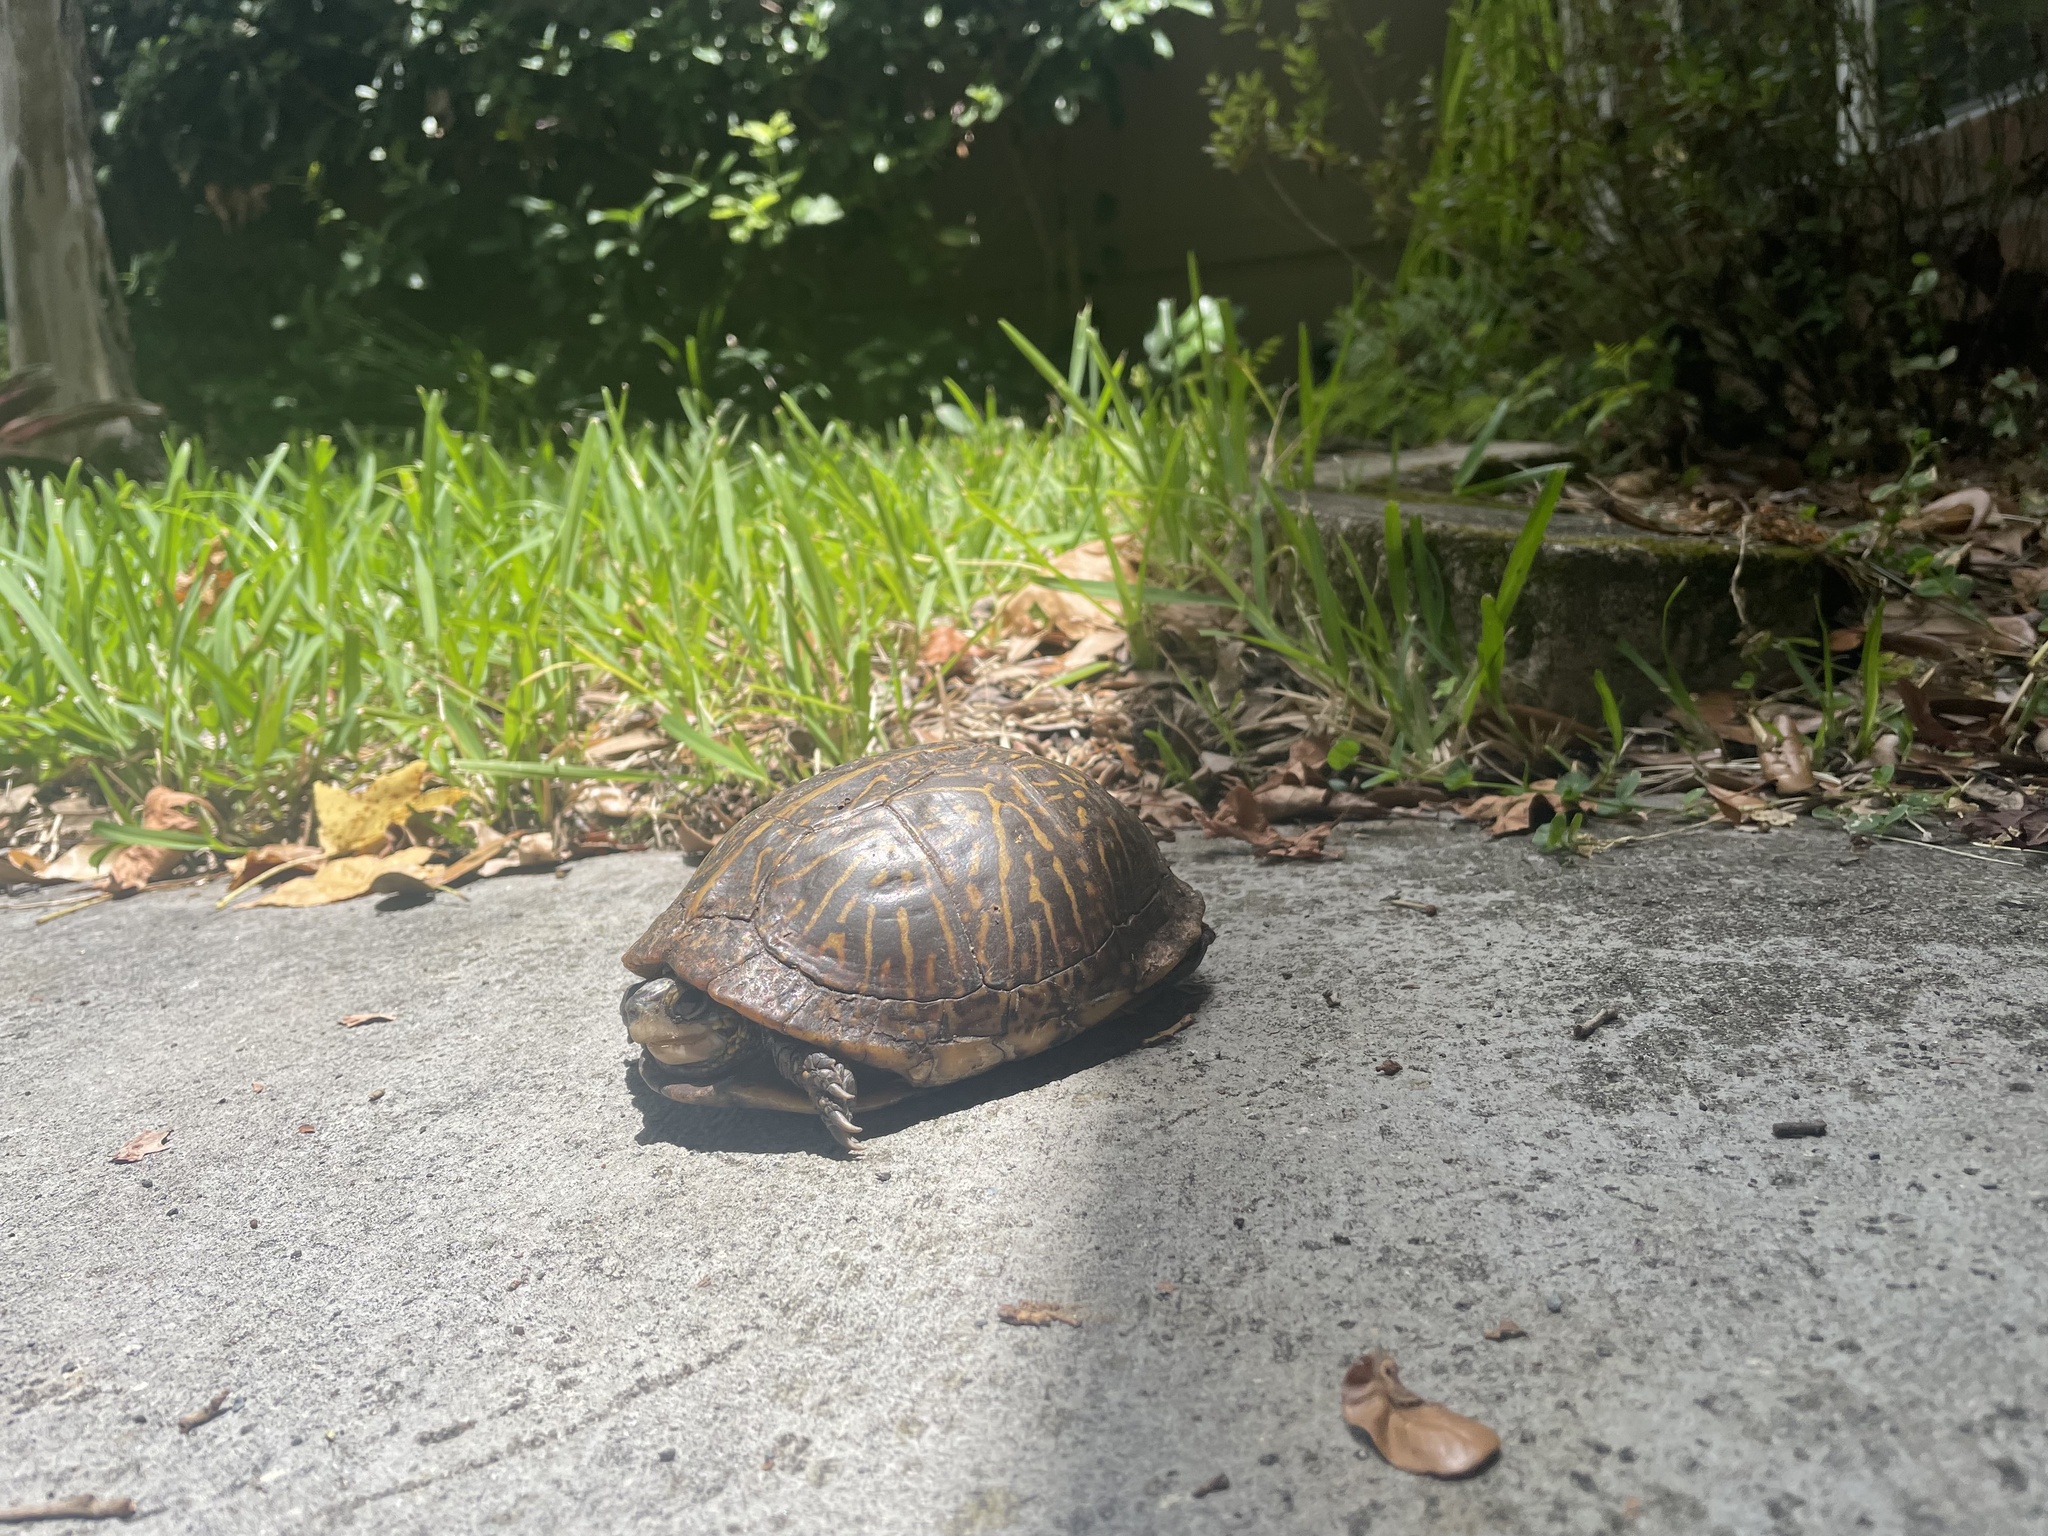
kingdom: Animalia
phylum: Chordata
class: Testudines
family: Emydidae
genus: Terrapene
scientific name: Terrapene carolina
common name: Common box turtle
